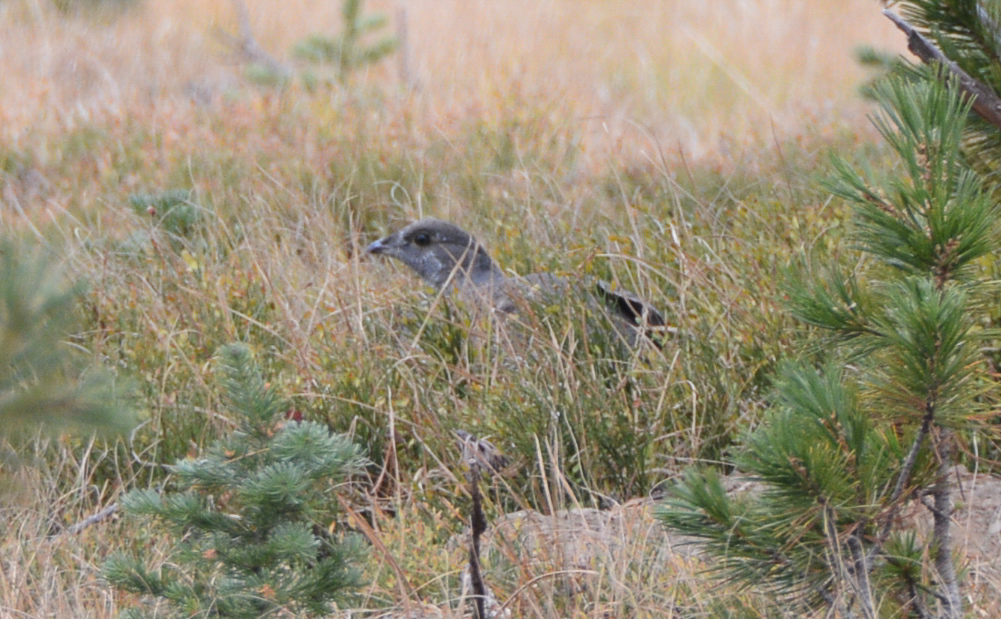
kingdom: Animalia
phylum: Chordata
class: Aves
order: Galliformes
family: Phasianidae
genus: Dendragapus
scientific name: Dendragapus obscurus
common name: Dusky grouse
